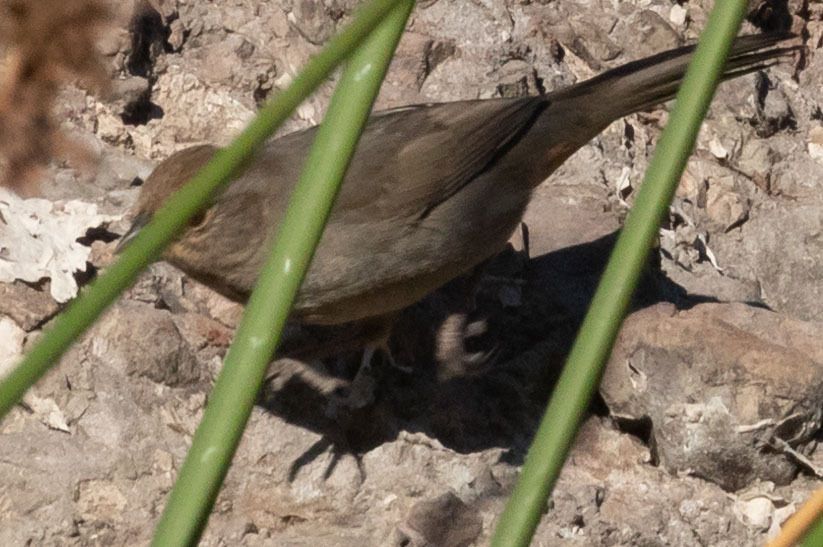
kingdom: Animalia
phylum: Chordata
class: Aves
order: Passeriformes
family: Passerellidae
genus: Melozone
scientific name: Melozone crissalis
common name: California towhee
